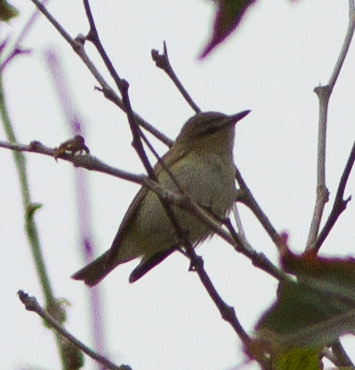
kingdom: Animalia
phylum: Chordata
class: Aves
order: Passeriformes
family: Vireonidae
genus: Vireo
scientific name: Vireo olivaceus
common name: Red-eyed vireo
